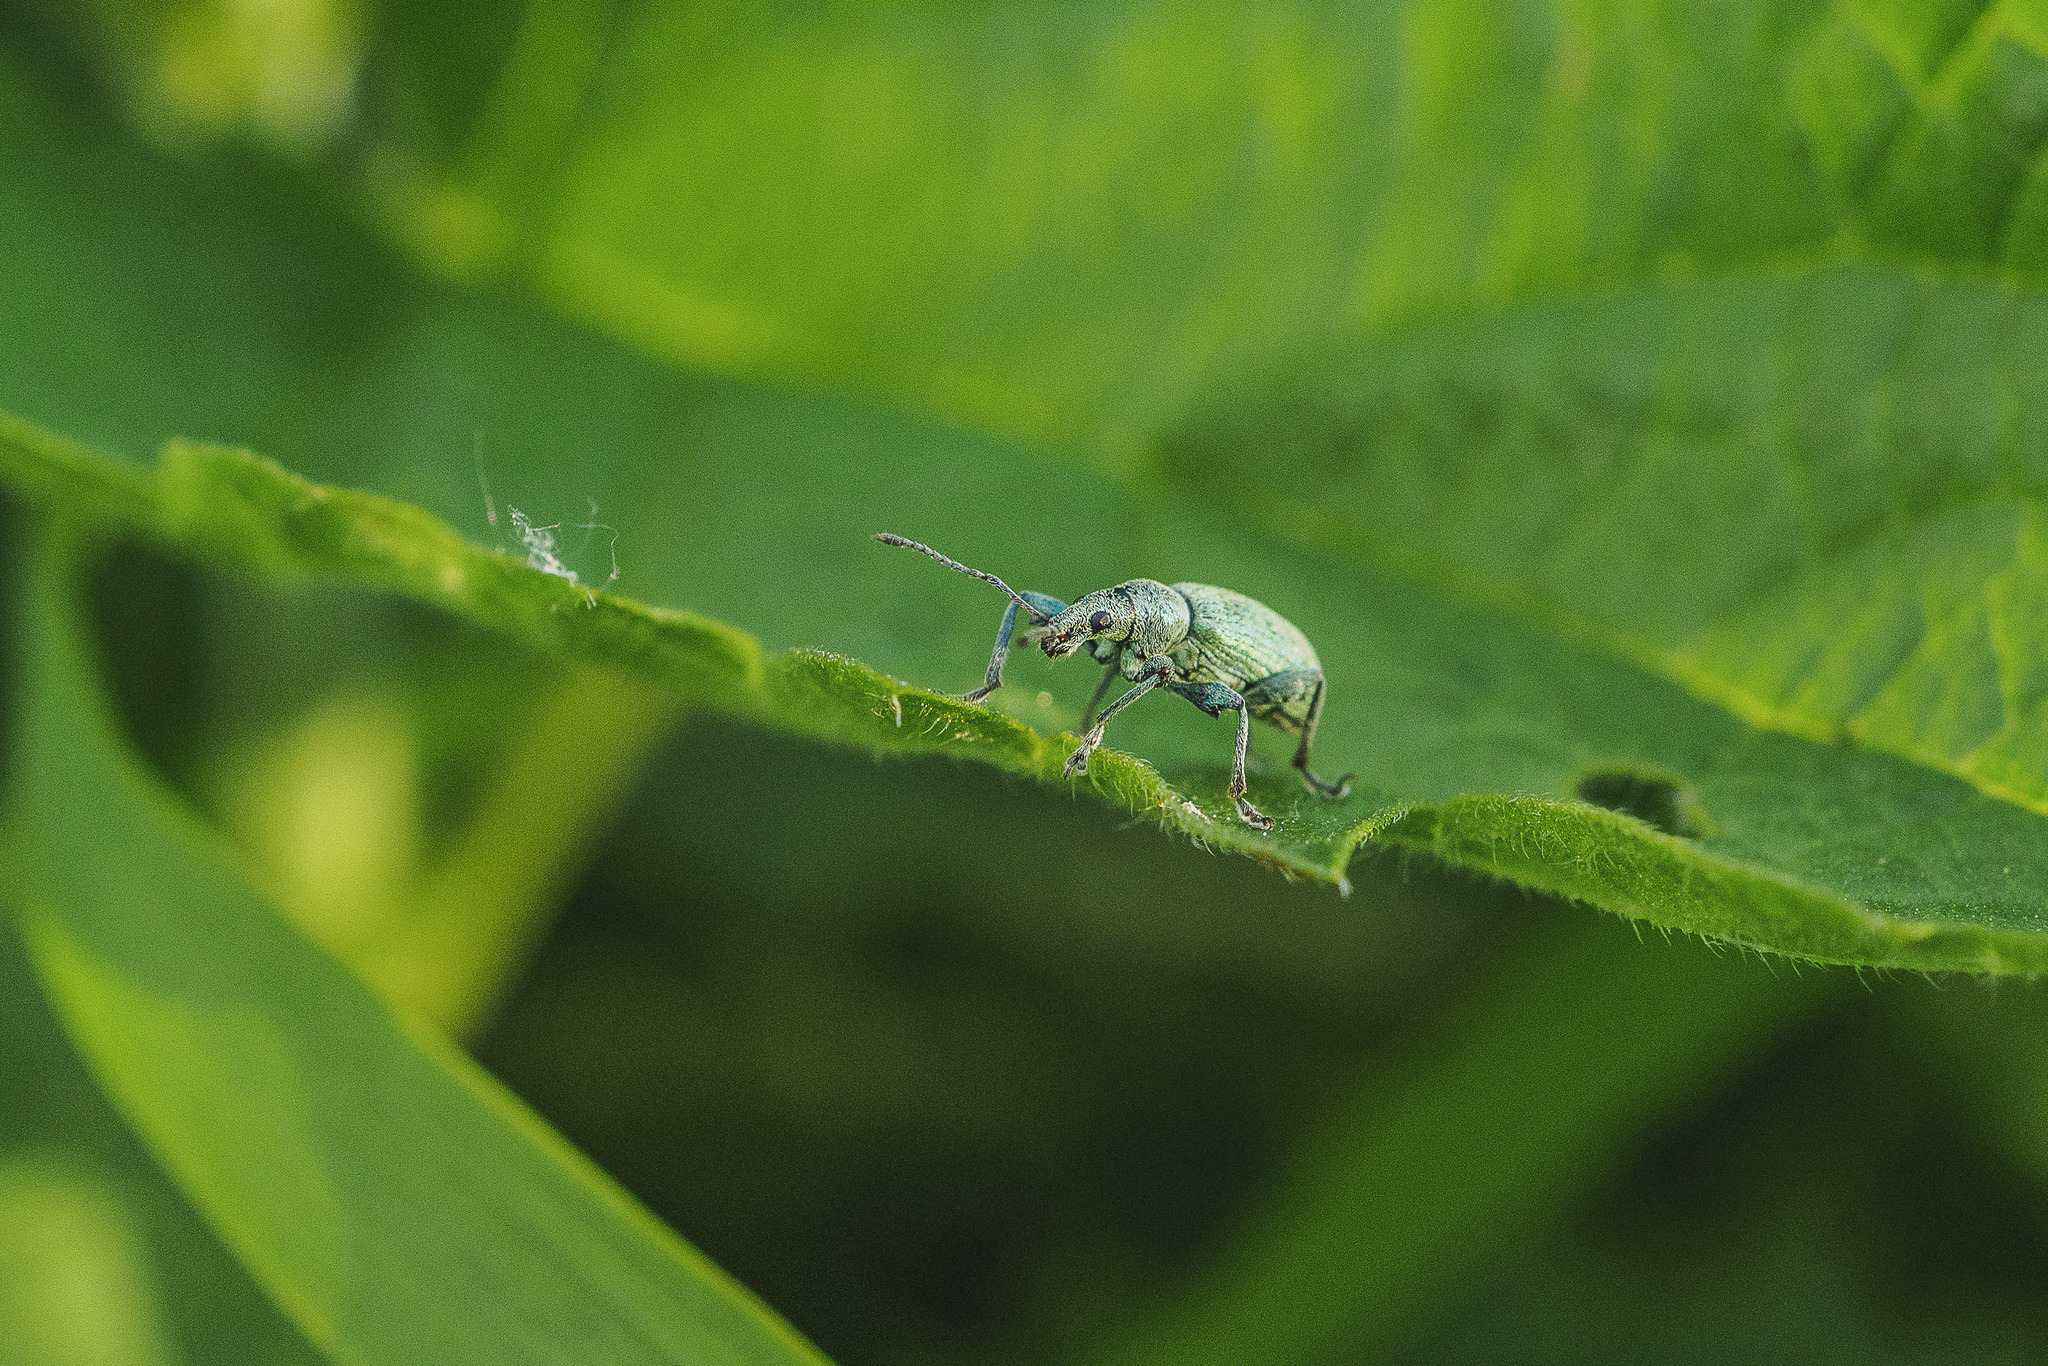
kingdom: Animalia
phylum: Arthropoda
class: Insecta
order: Coleoptera
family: Curculionidae
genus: Phyllobius
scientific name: Phyllobius pomaceus
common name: Green nettle weevil
